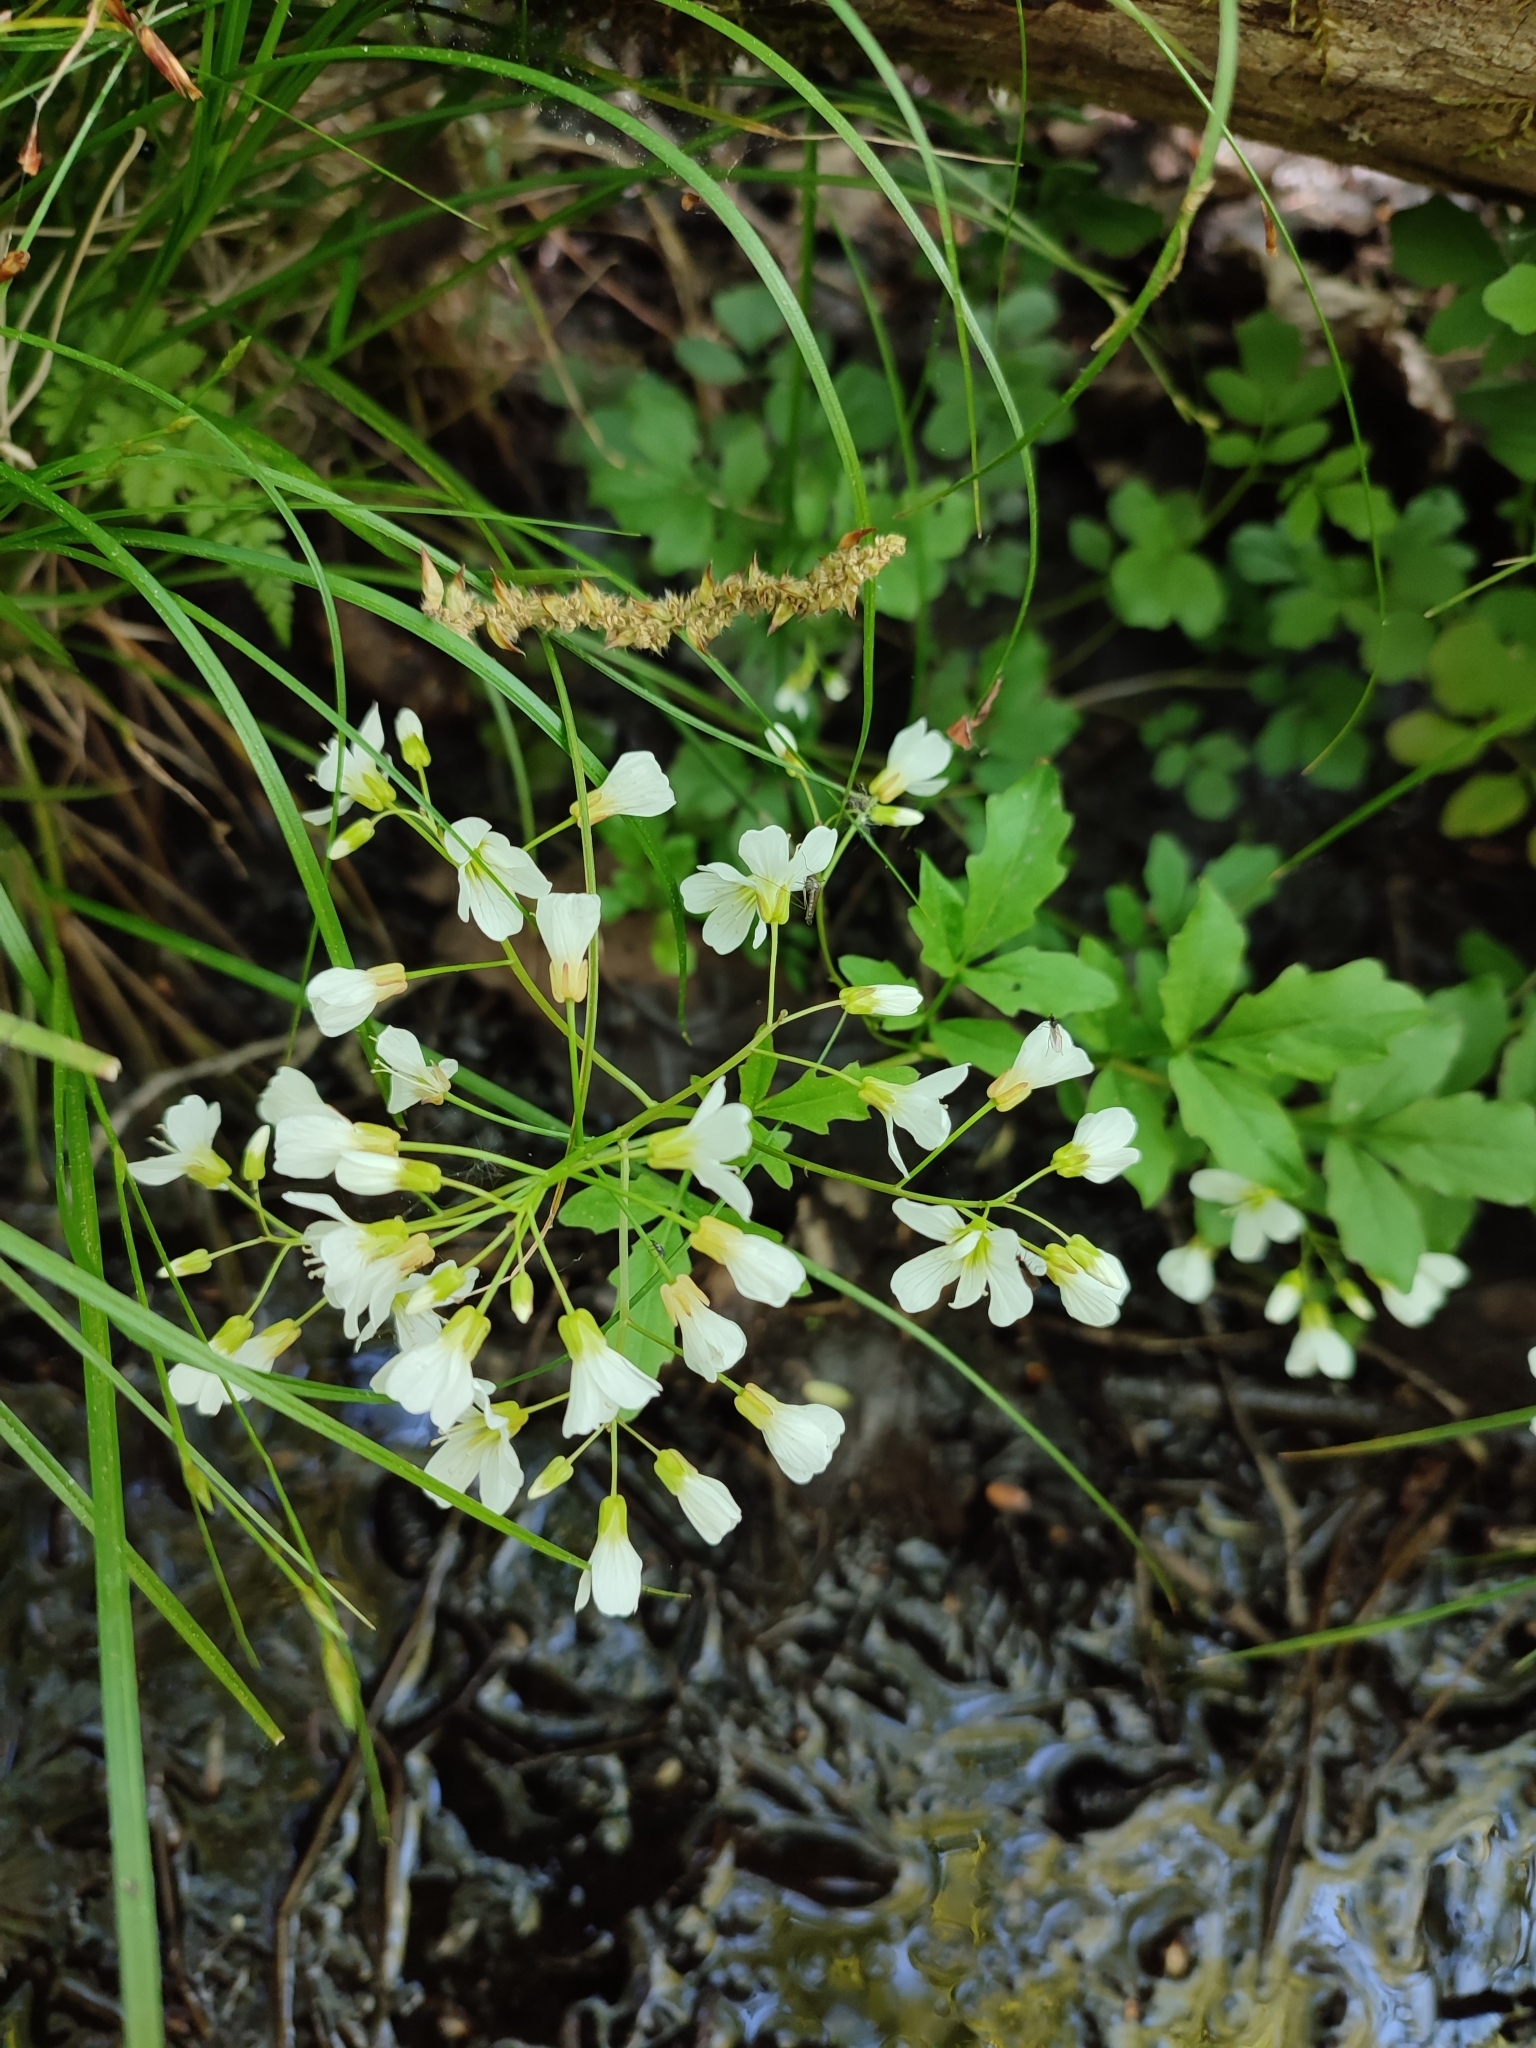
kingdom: Plantae
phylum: Tracheophyta
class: Magnoliopsida
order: Brassicales
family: Brassicaceae
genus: Cardamine
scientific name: Cardamine amara
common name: Large bitter-cress
